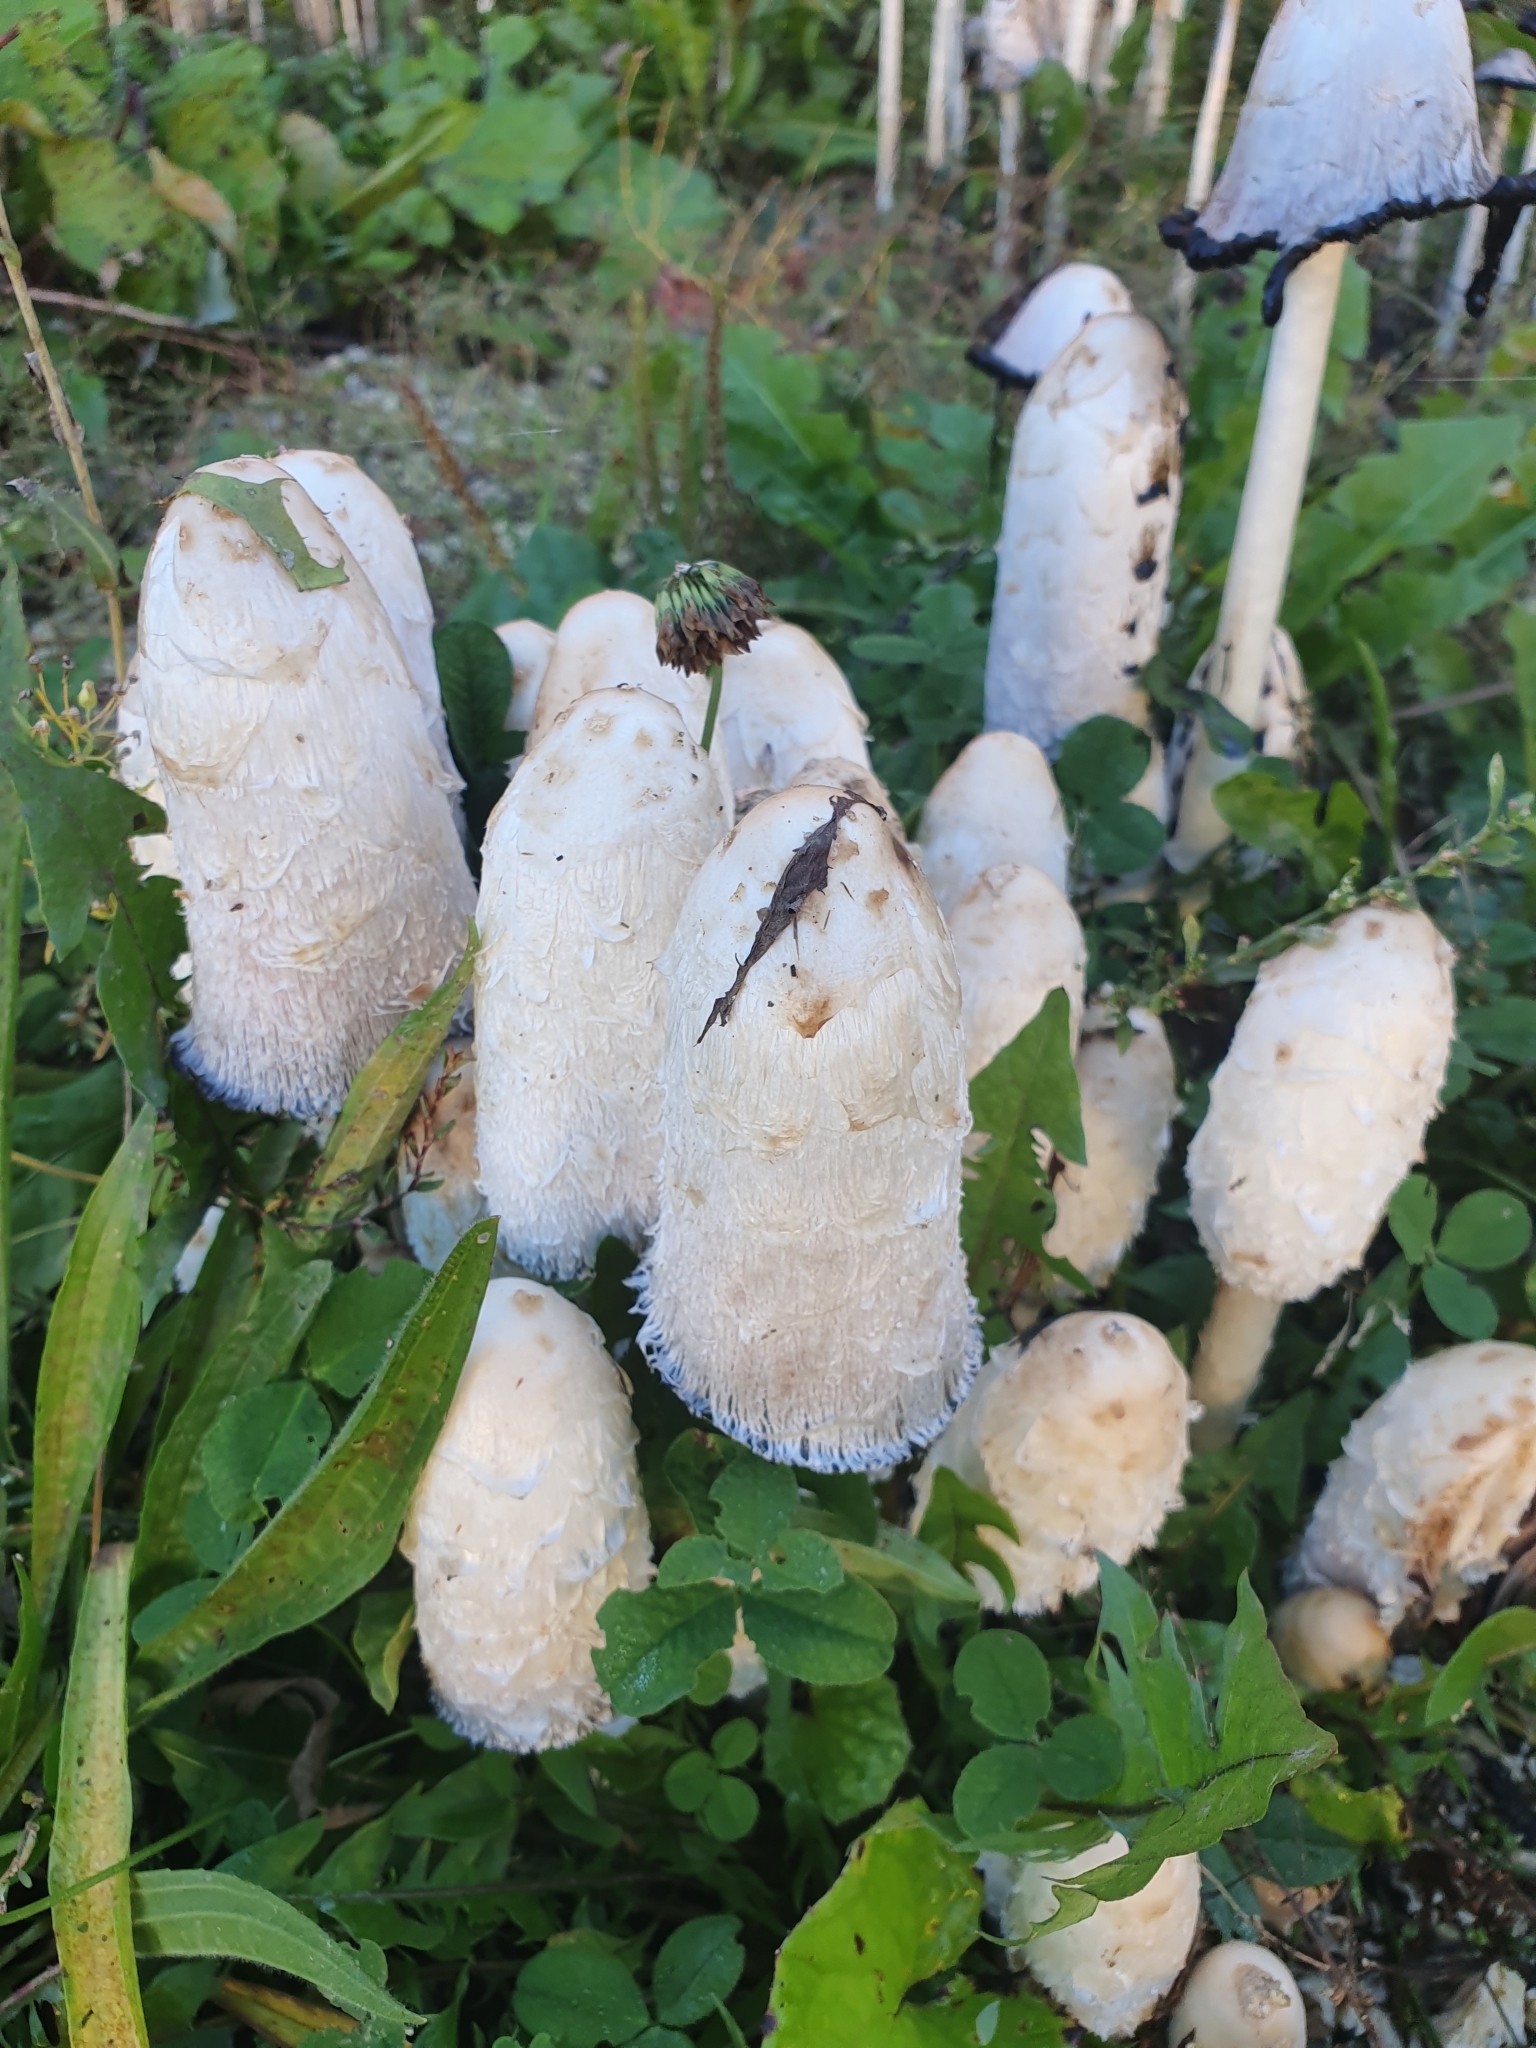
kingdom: Fungi
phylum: Basidiomycota
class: Agaricomycetes
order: Agaricales
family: Agaricaceae
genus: Coprinus
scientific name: Coprinus comatus
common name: Lawyer's wig
